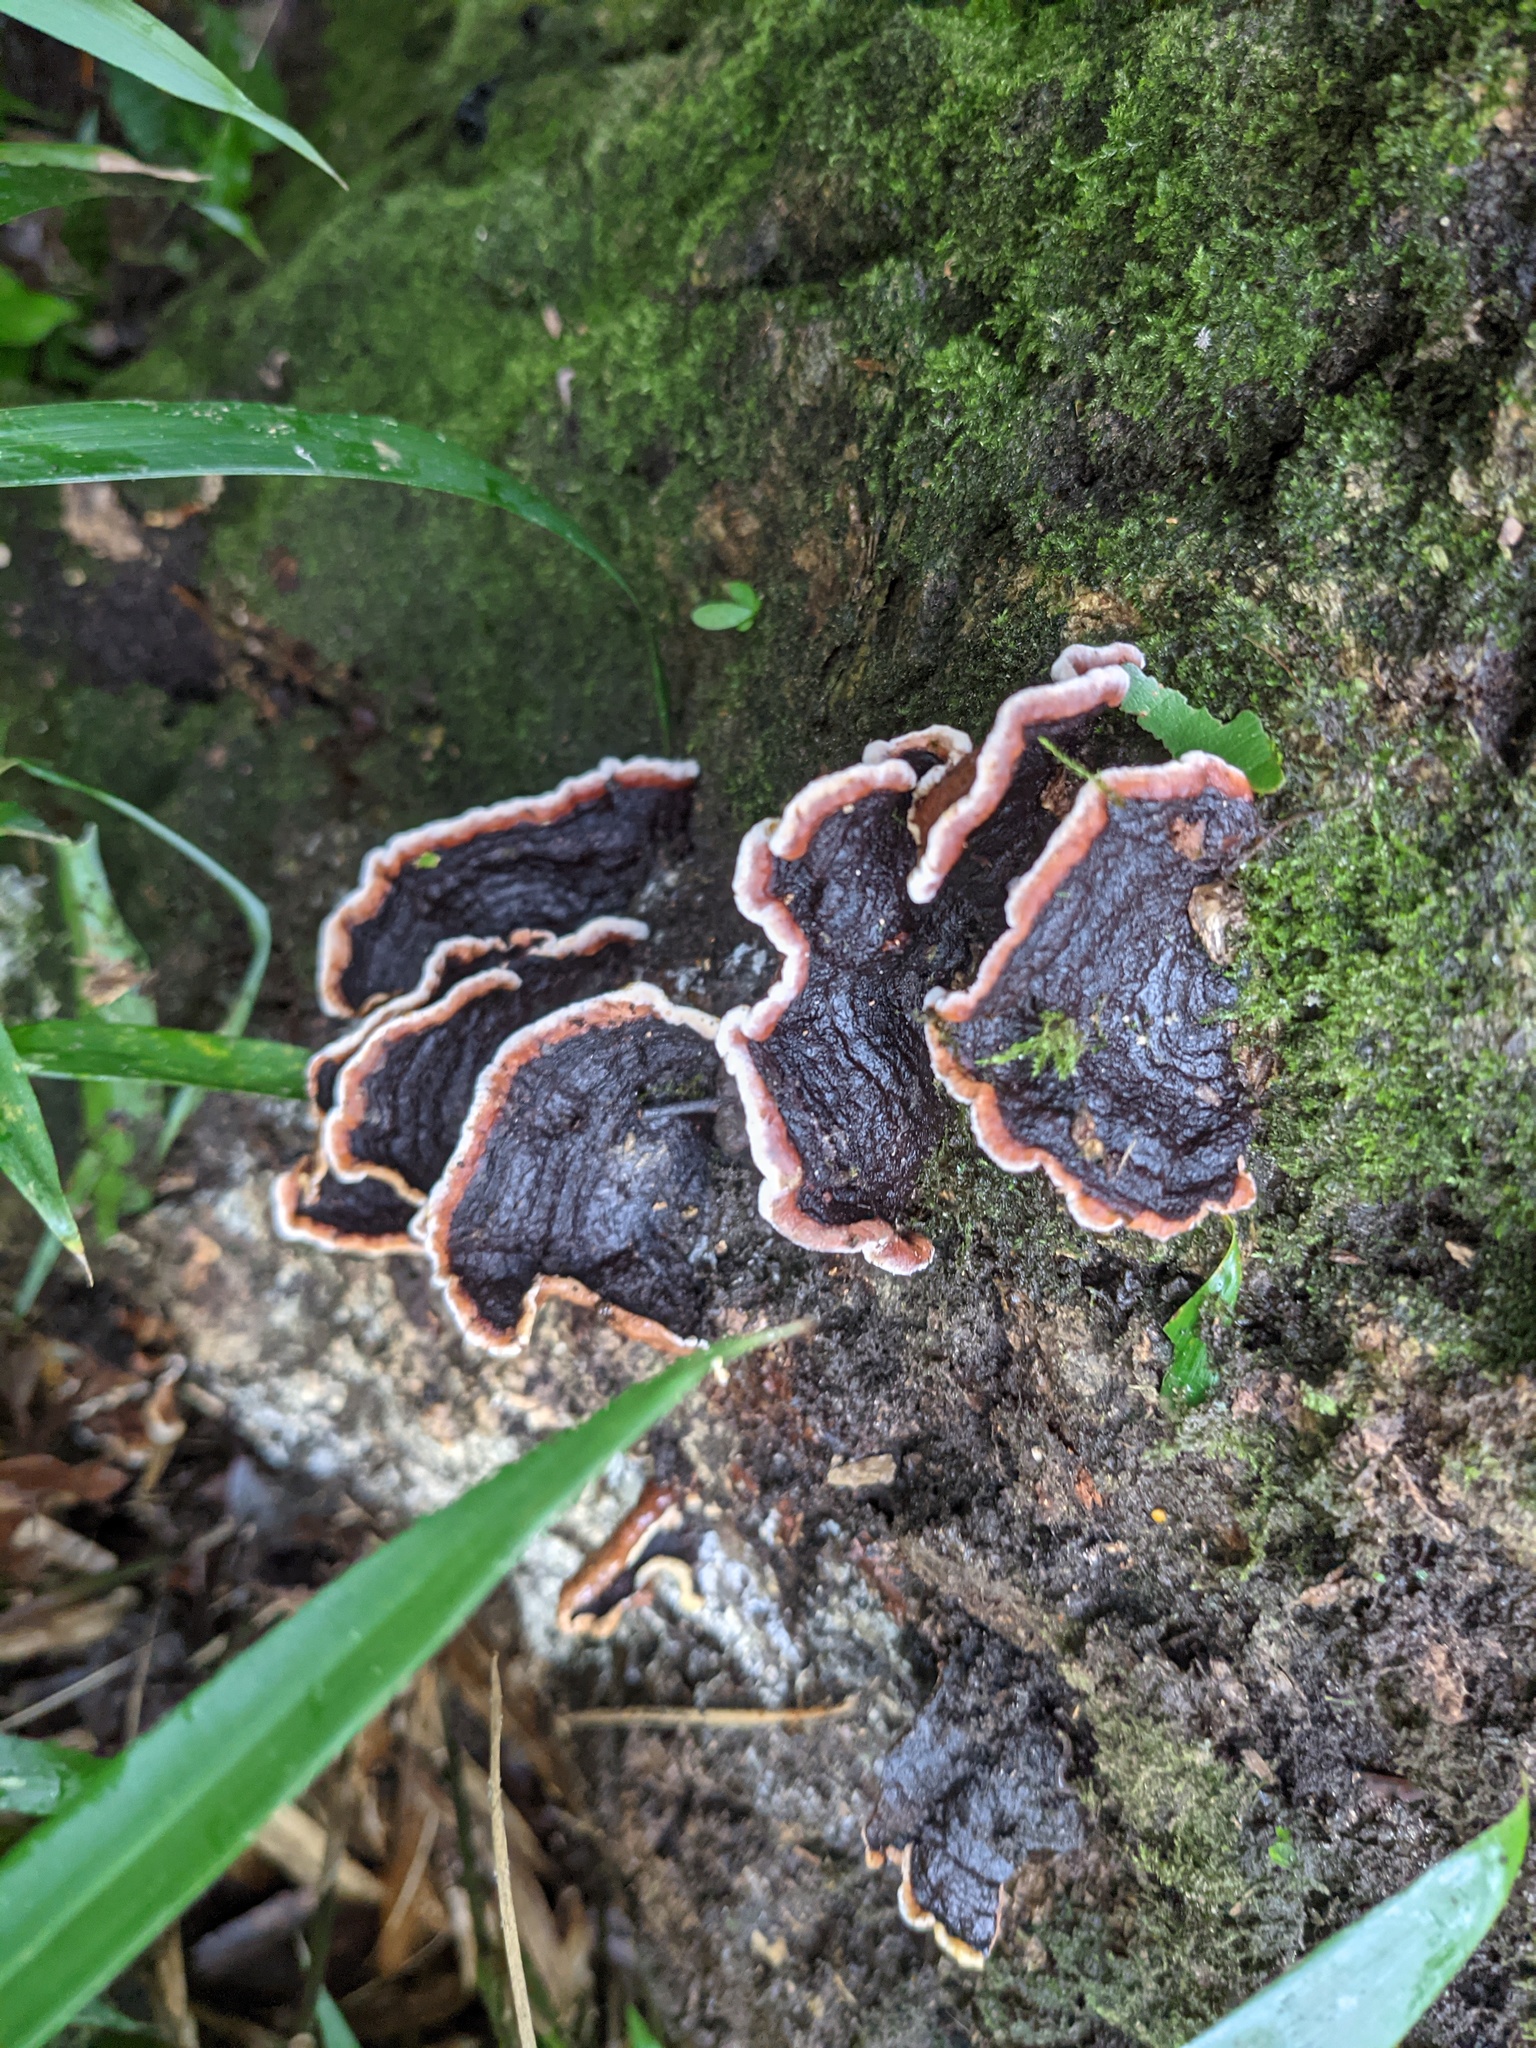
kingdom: Fungi
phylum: Basidiomycota
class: Agaricomycetes
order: Corticiales
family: Punctulariaceae
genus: Punctularia
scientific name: Punctularia strigosozonata
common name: White-rot fungus
